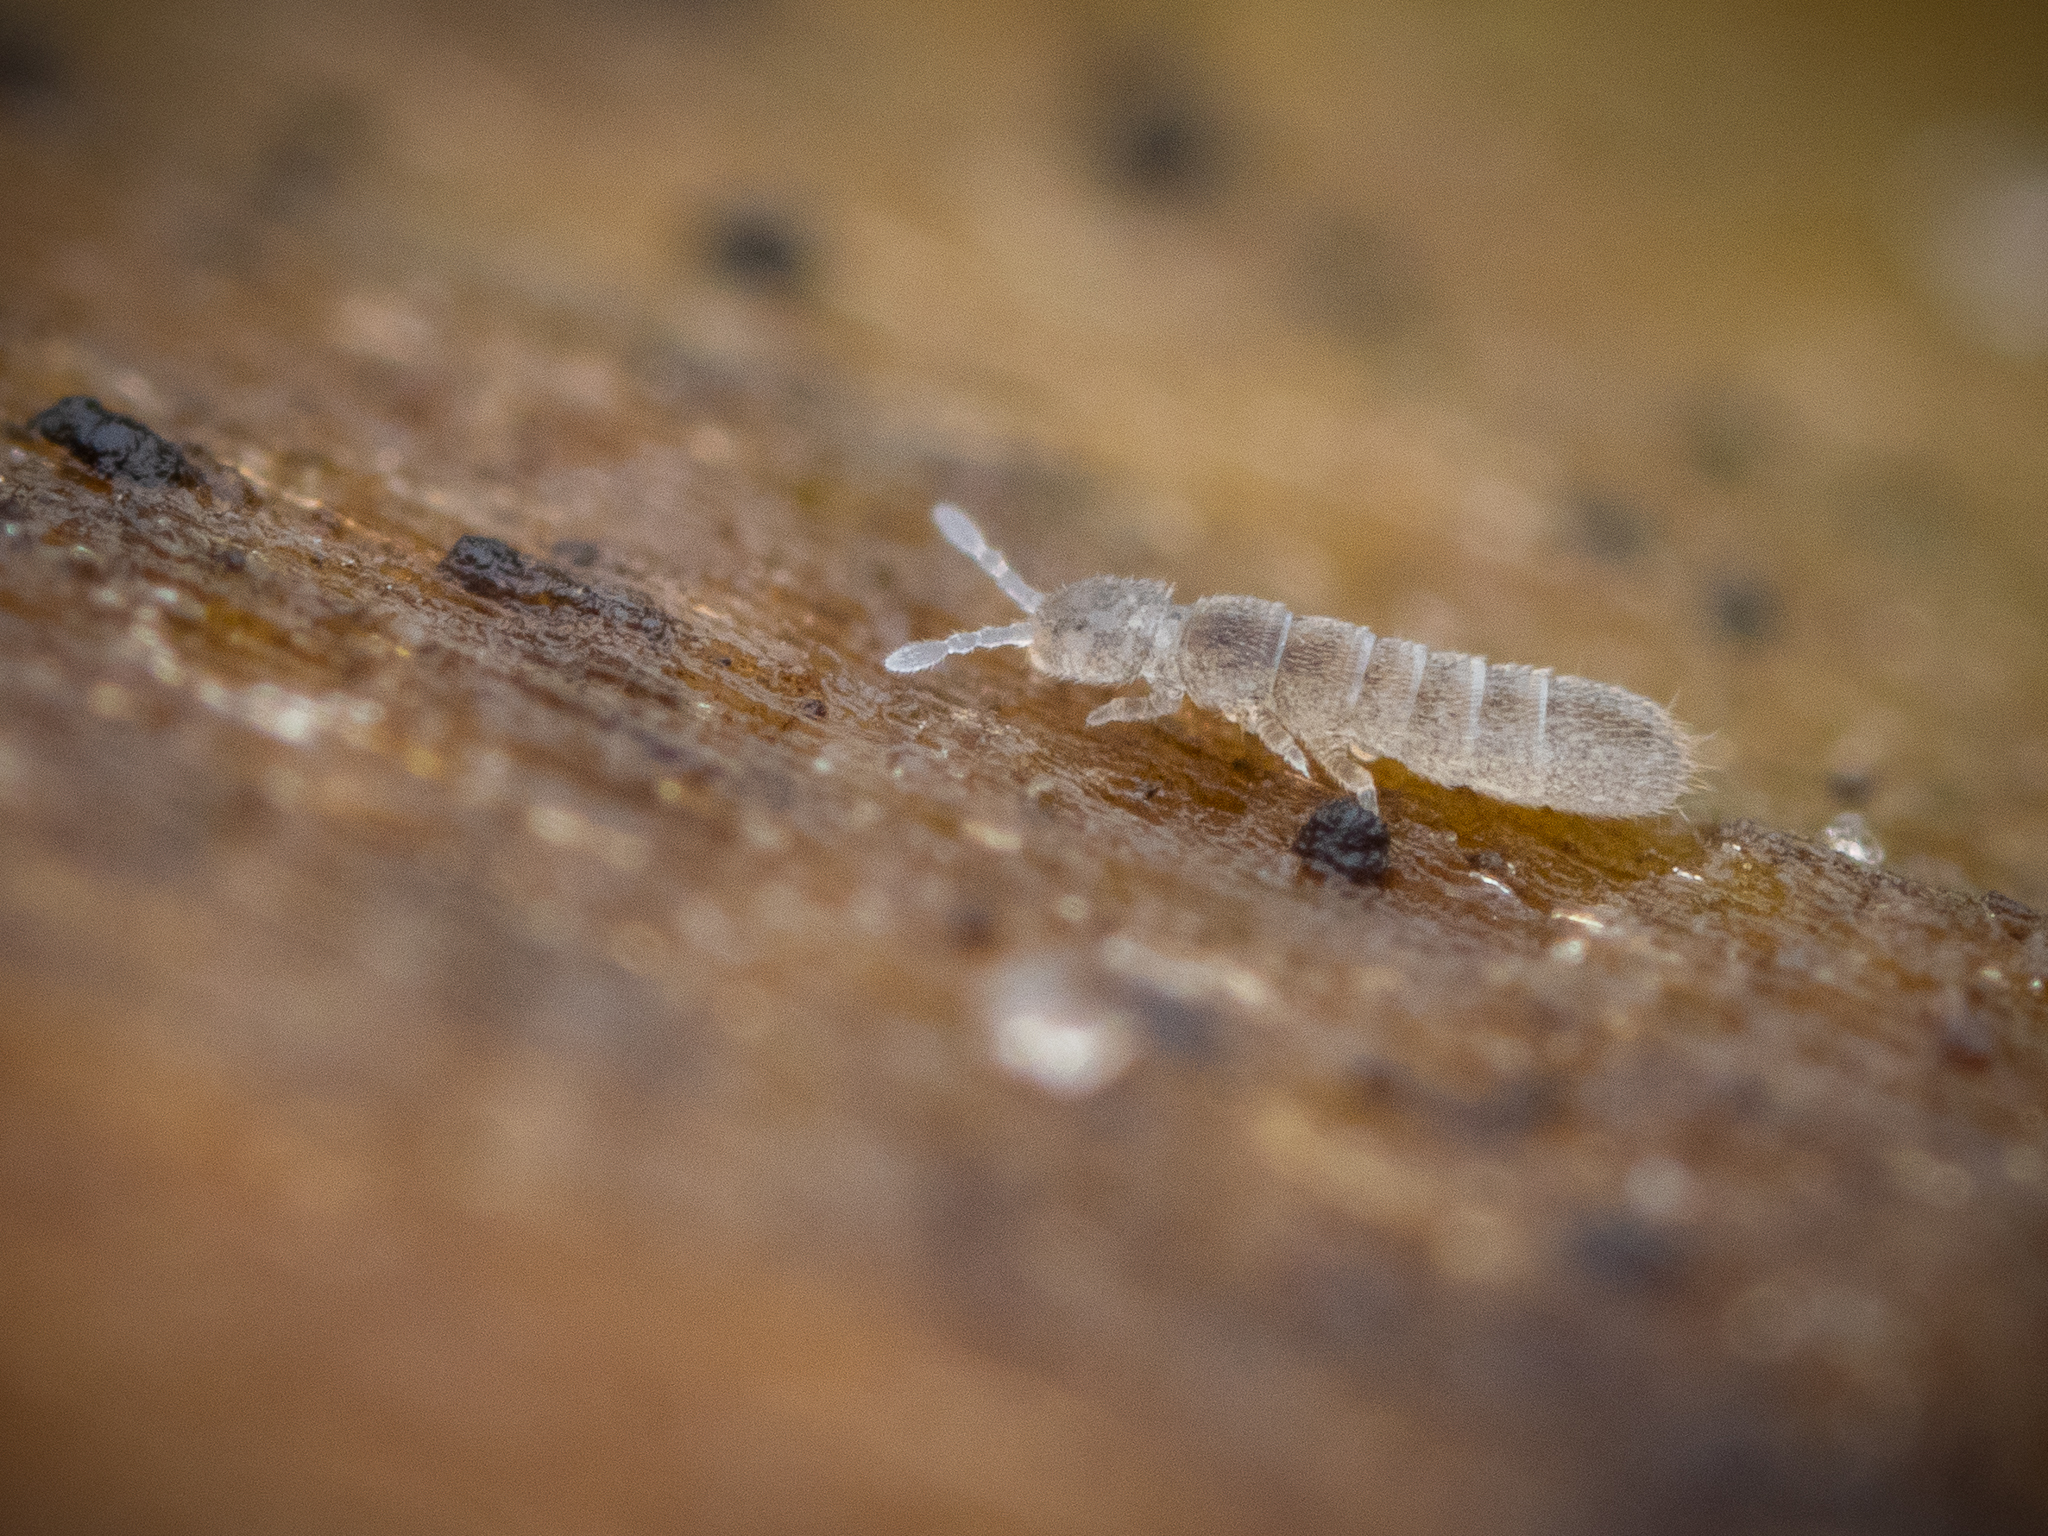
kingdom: Animalia
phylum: Arthropoda
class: Collembola
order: Entomobryomorpha
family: Isotomidae
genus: Folsomia
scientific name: Folsomia quadrioculata
